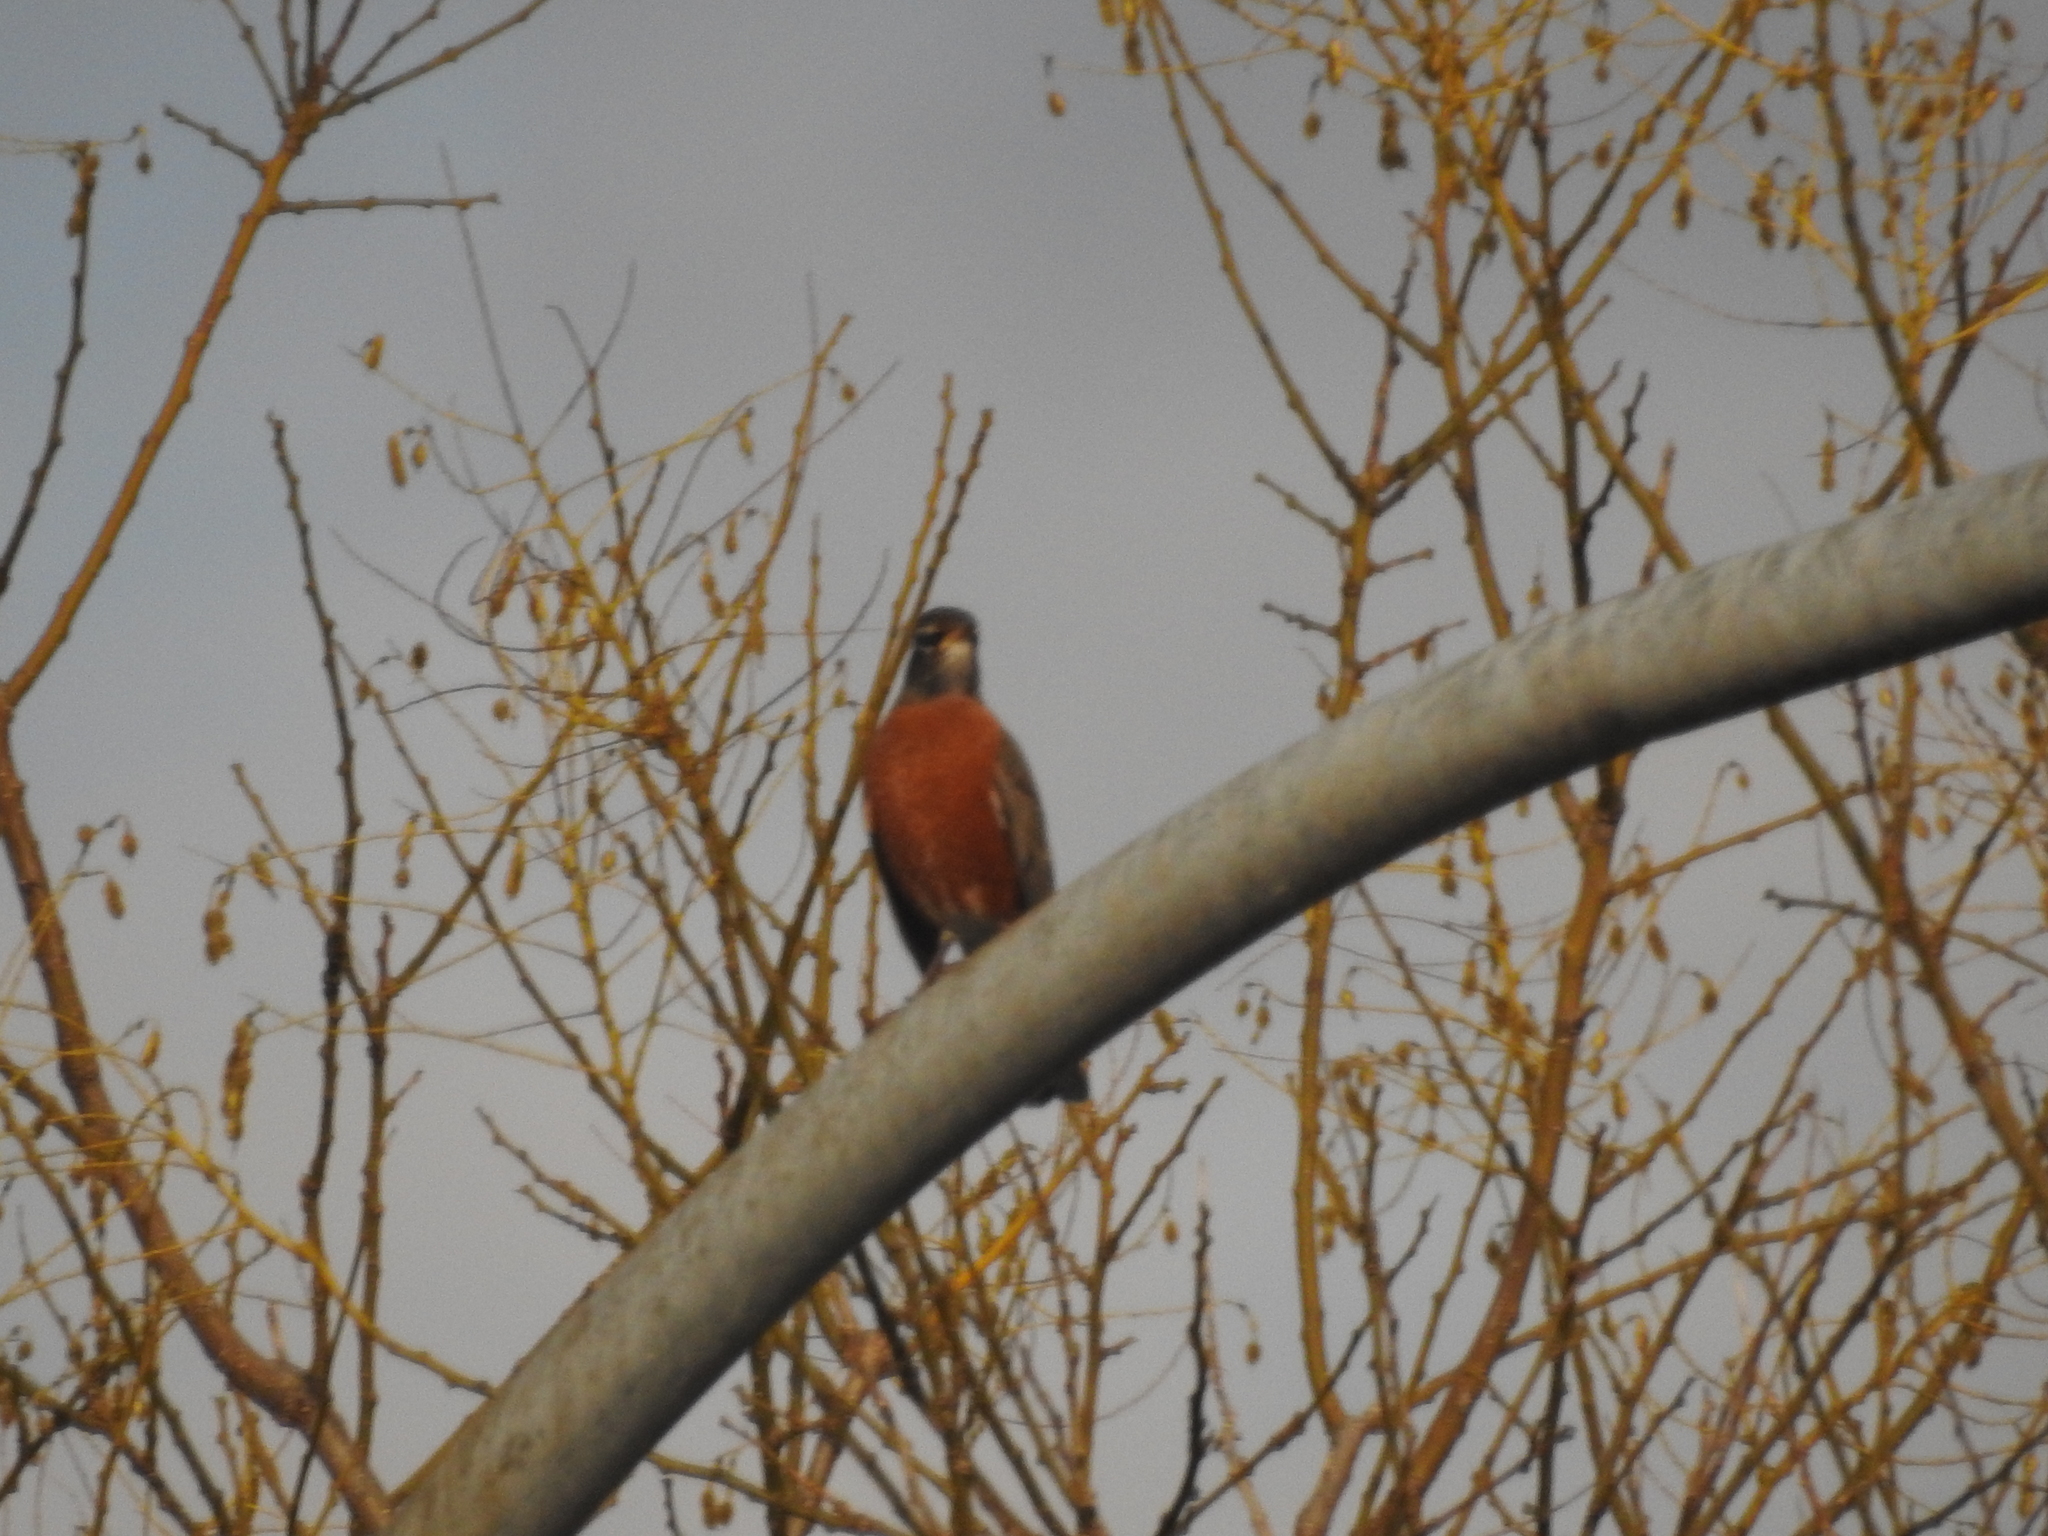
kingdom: Animalia
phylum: Chordata
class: Aves
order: Passeriformes
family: Turdidae
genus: Turdus
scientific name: Turdus migratorius
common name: American robin
